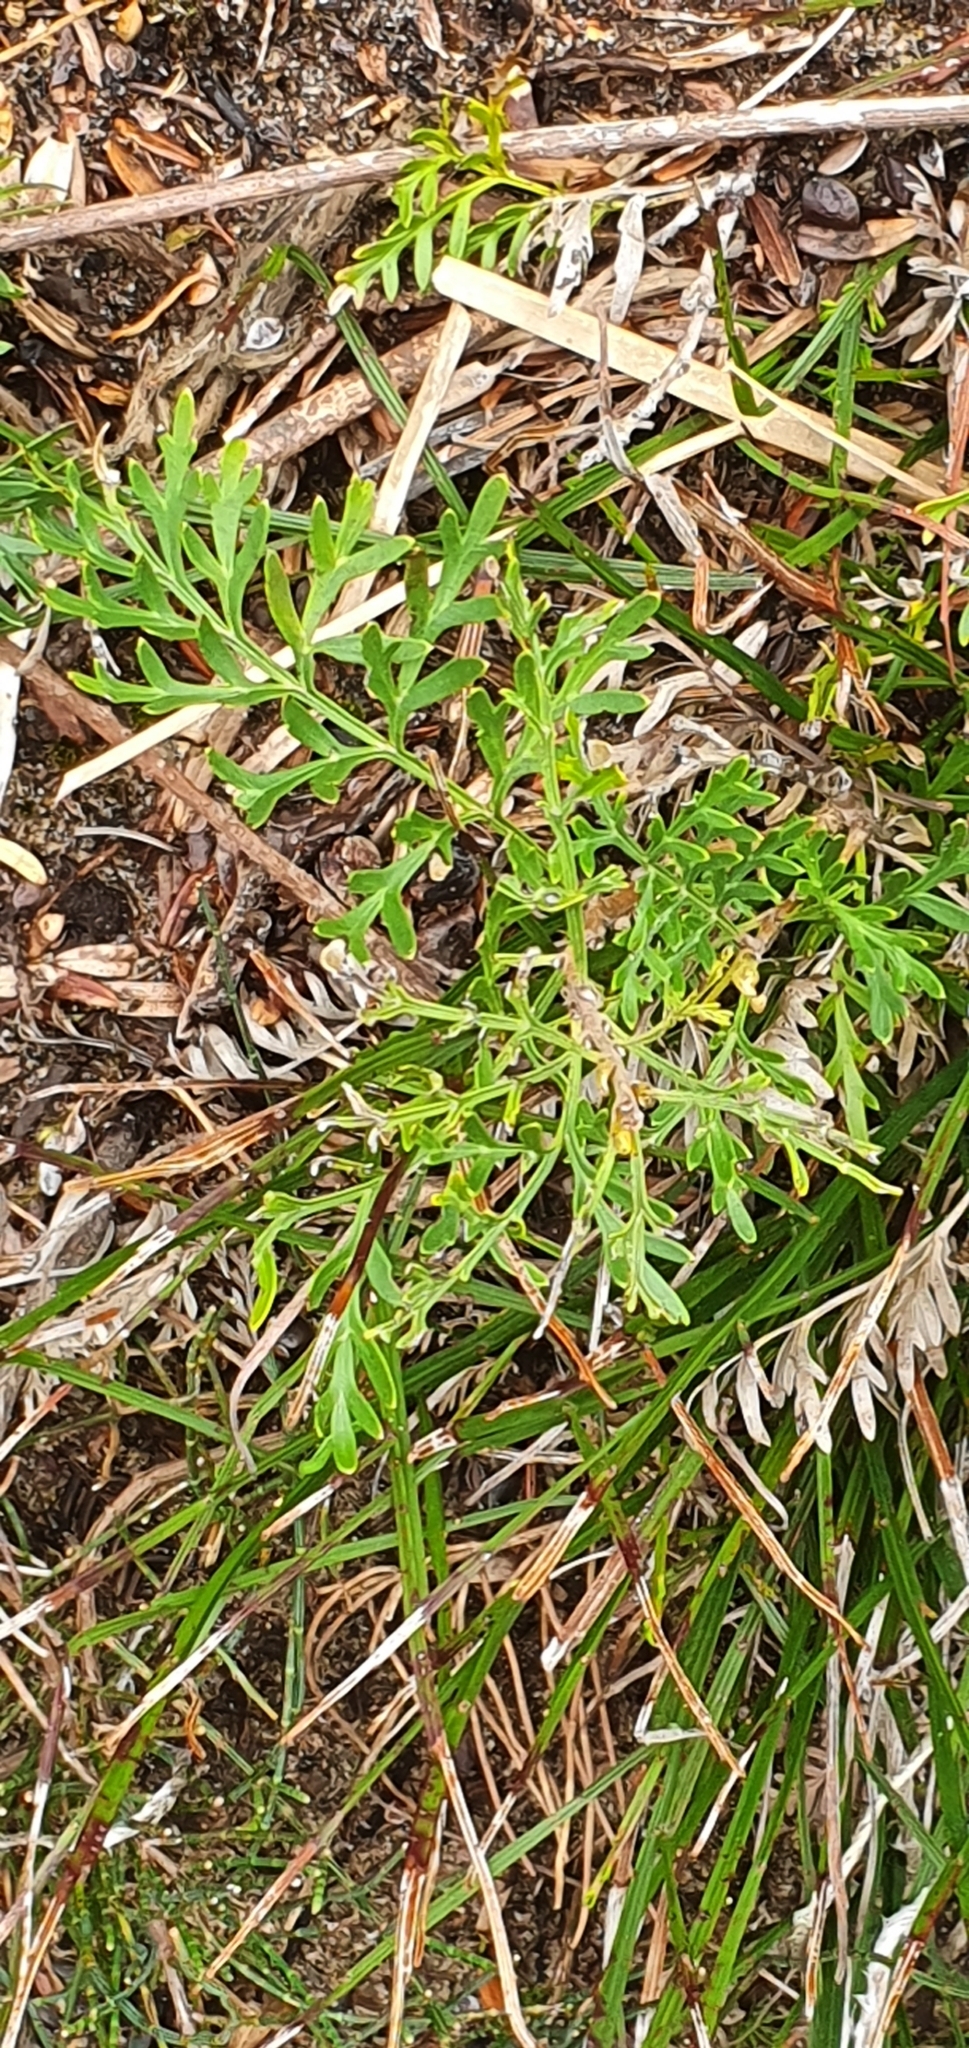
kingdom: Plantae
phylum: Tracheophyta
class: Magnoliopsida
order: Proteales
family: Proteaceae
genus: Lomatia
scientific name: Lomatia tinctoria
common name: Guitar plant
